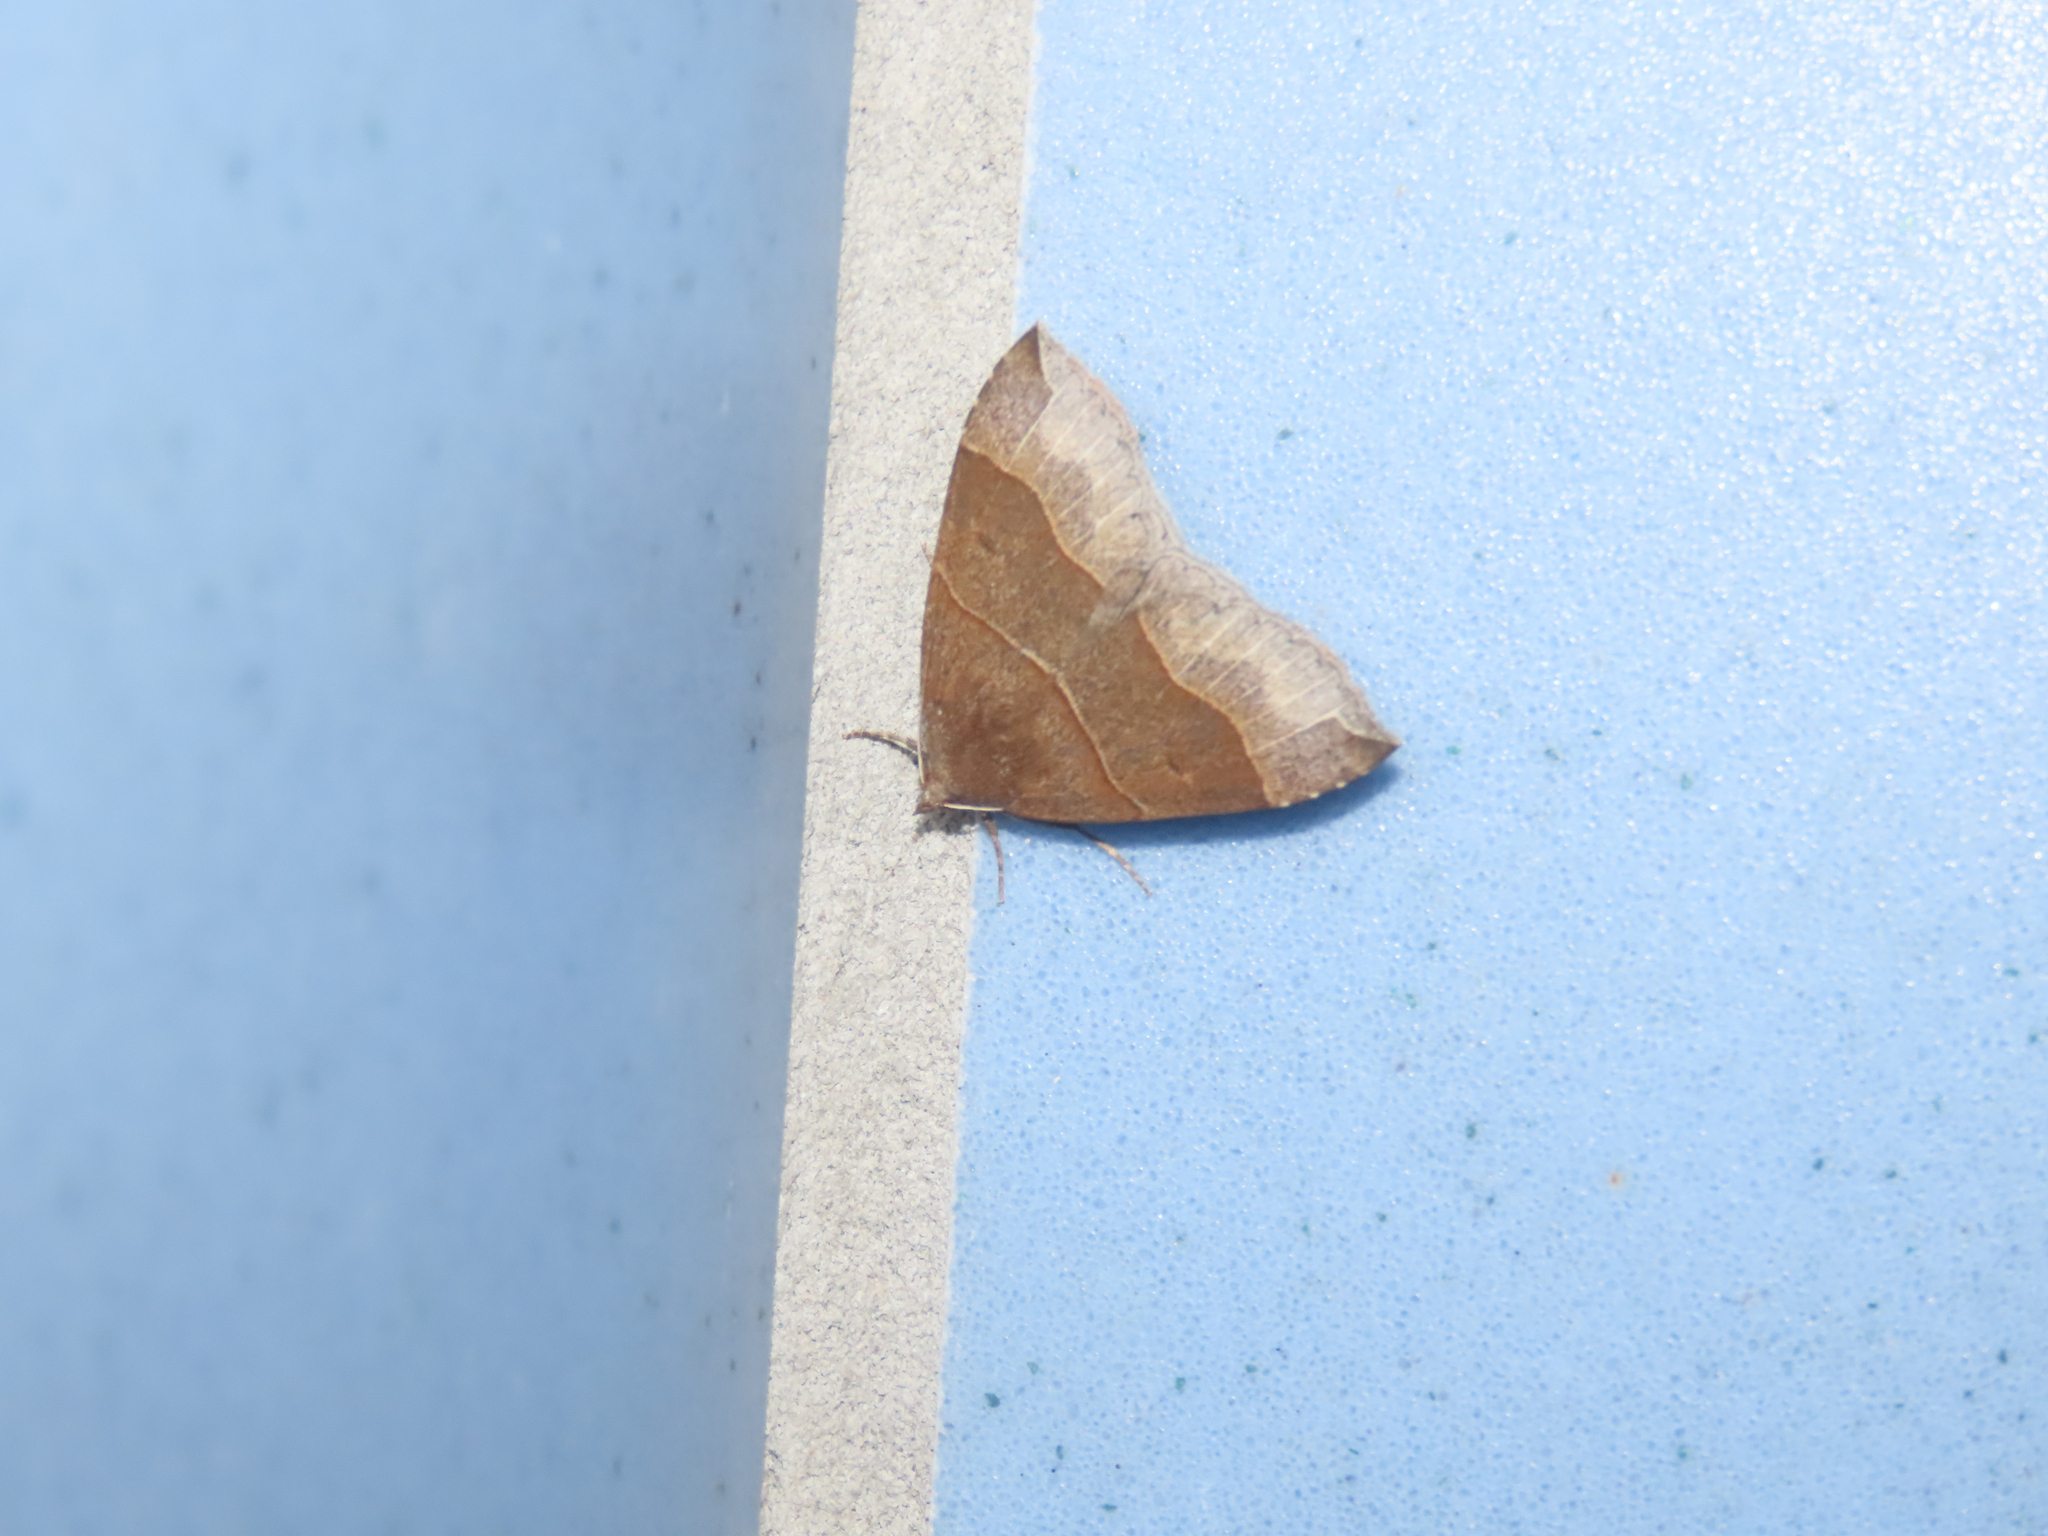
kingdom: Animalia
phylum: Arthropoda
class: Insecta
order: Lepidoptera
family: Erebidae
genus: Parallelia
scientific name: Parallelia bistriaris
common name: Maple looper moth
